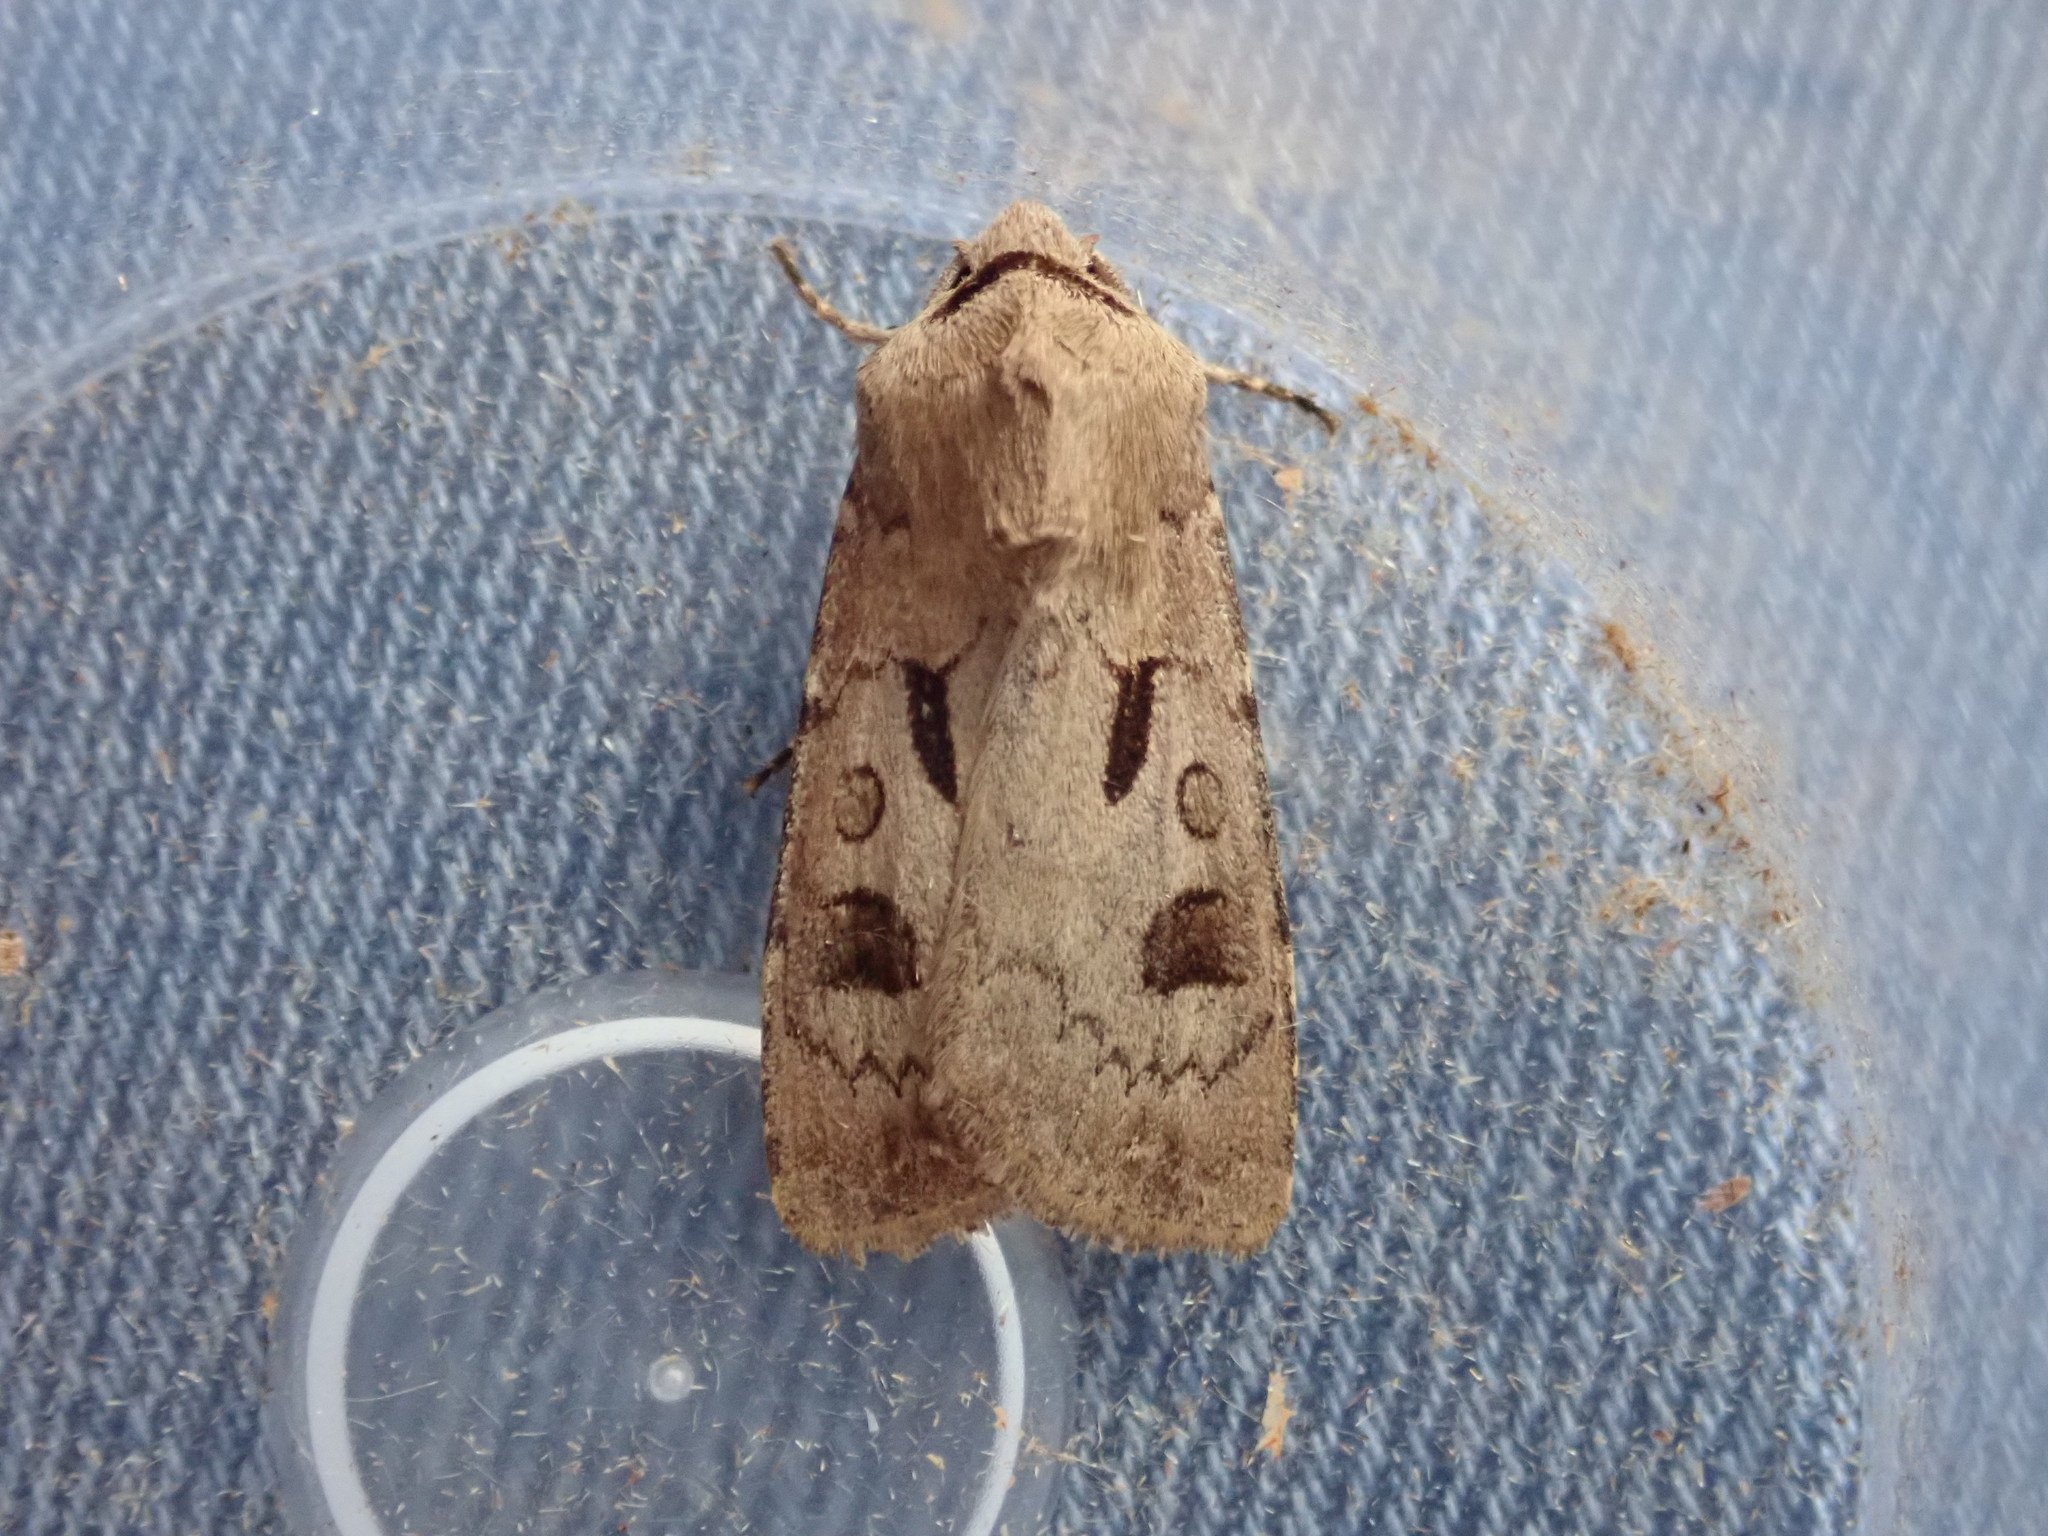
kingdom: Animalia
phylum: Arthropoda
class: Insecta
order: Lepidoptera
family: Noctuidae
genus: Agrotis
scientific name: Agrotis exclamationis
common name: Heart and dart
